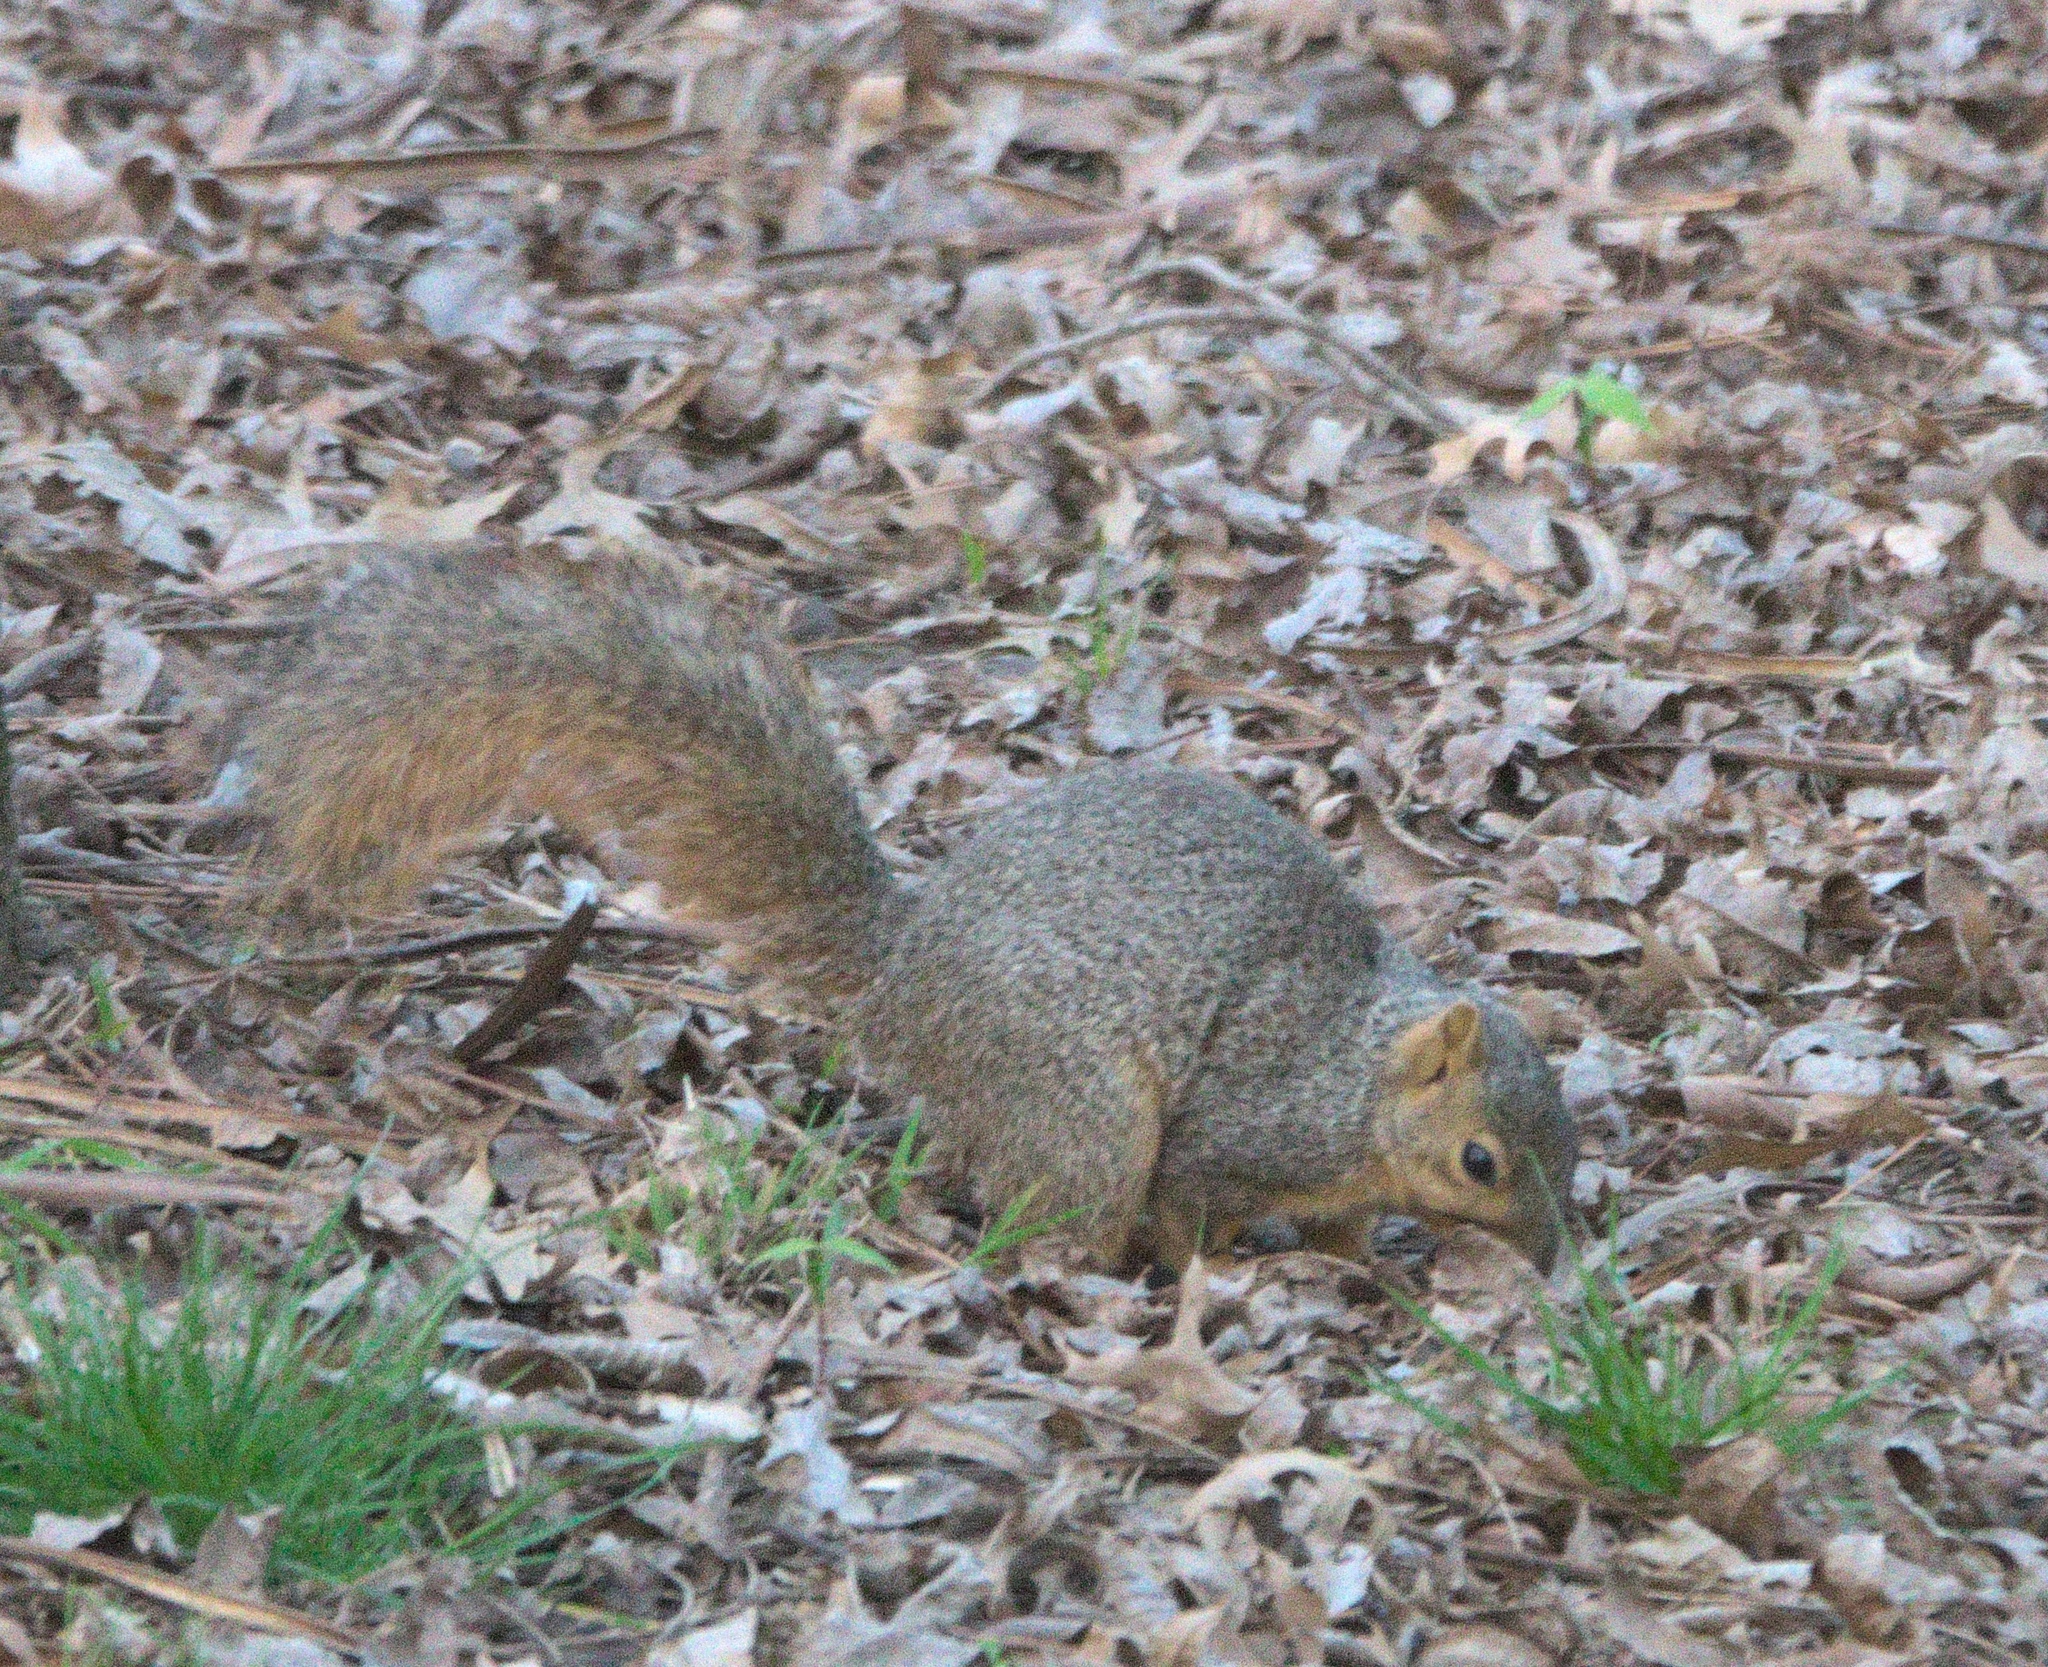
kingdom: Animalia
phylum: Chordata
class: Mammalia
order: Rodentia
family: Sciuridae
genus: Sciurus
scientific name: Sciurus niger
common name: Fox squirrel
